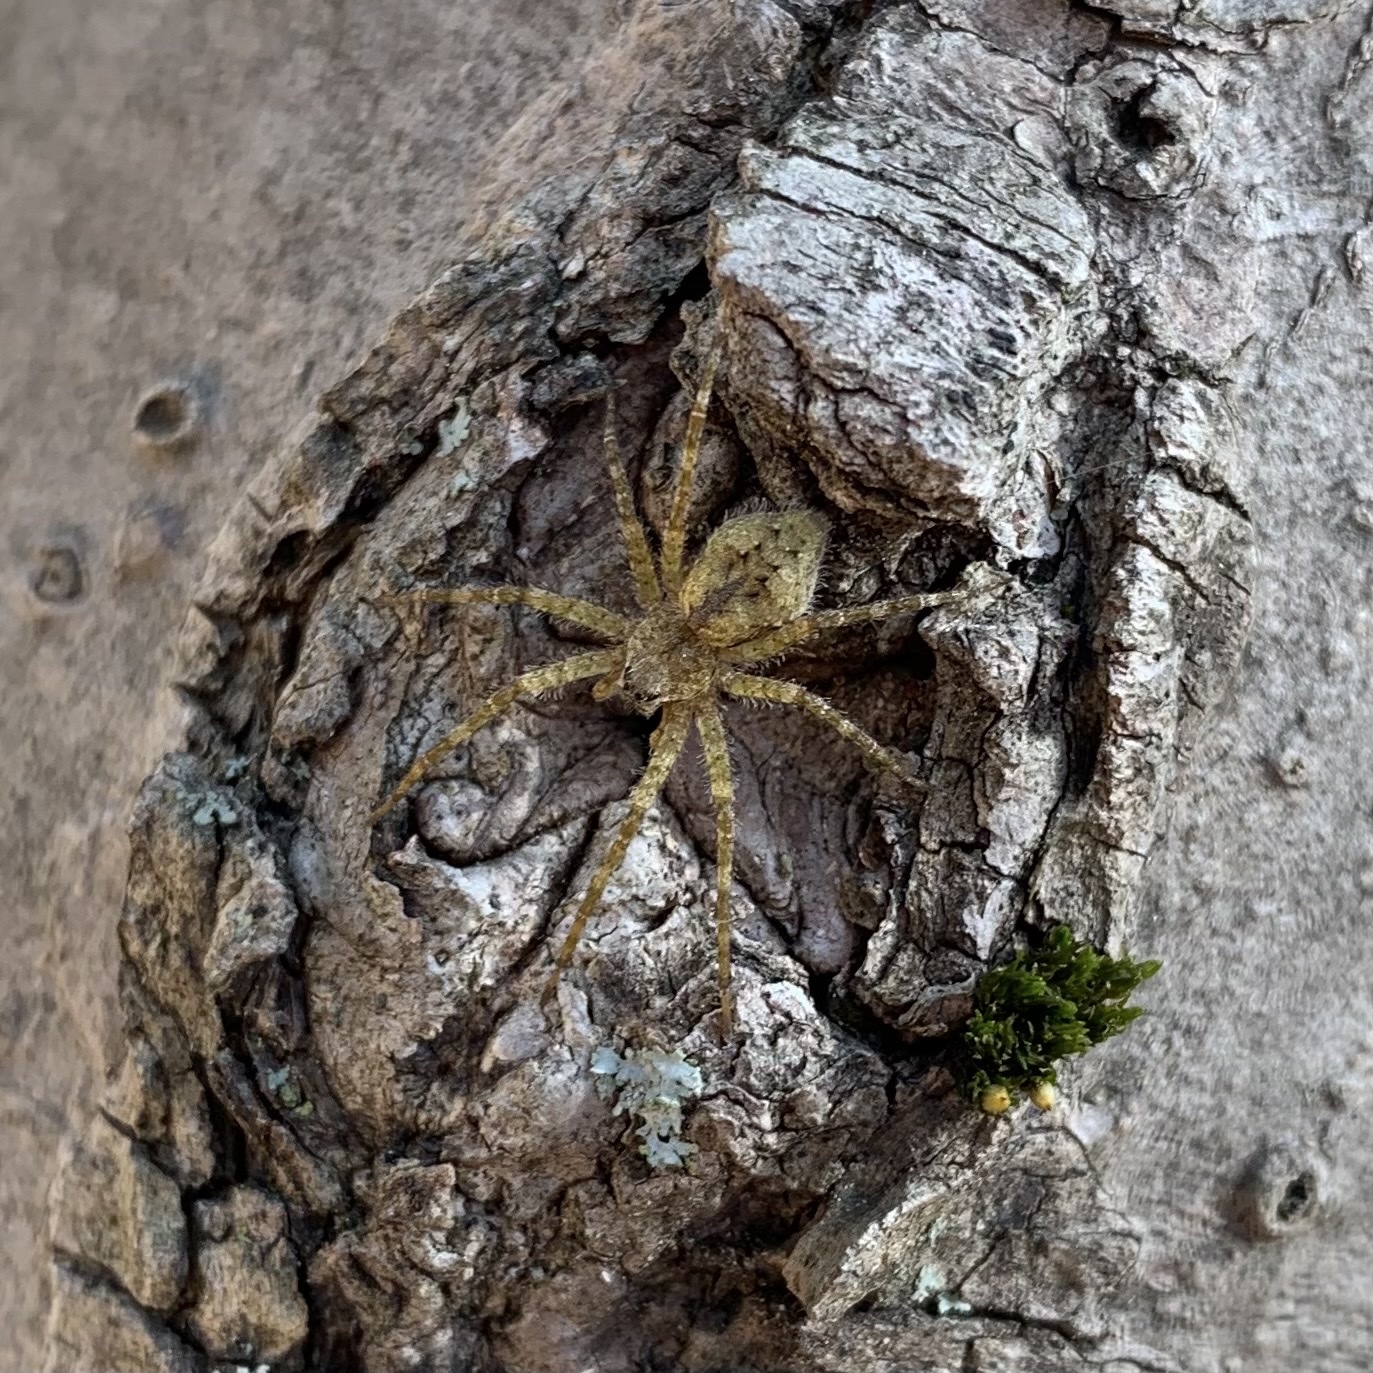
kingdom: Animalia
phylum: Arthropoda
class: Arachnida
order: Araneae
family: Pisauridae
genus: Dolomedes
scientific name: Dolomedes albineus
